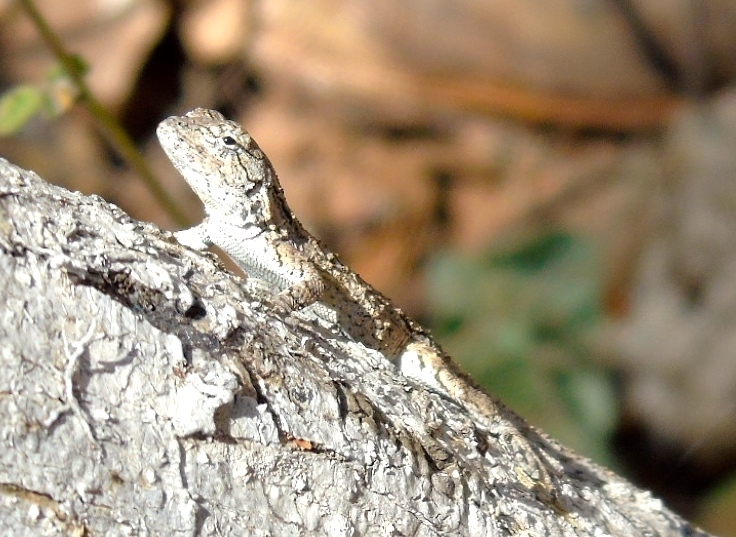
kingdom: Animalia
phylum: Chordata
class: Squamata
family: Phrynosomatidae
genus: Sceloporus
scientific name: Sceloporus clarkii
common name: Clark's spiny lizard
